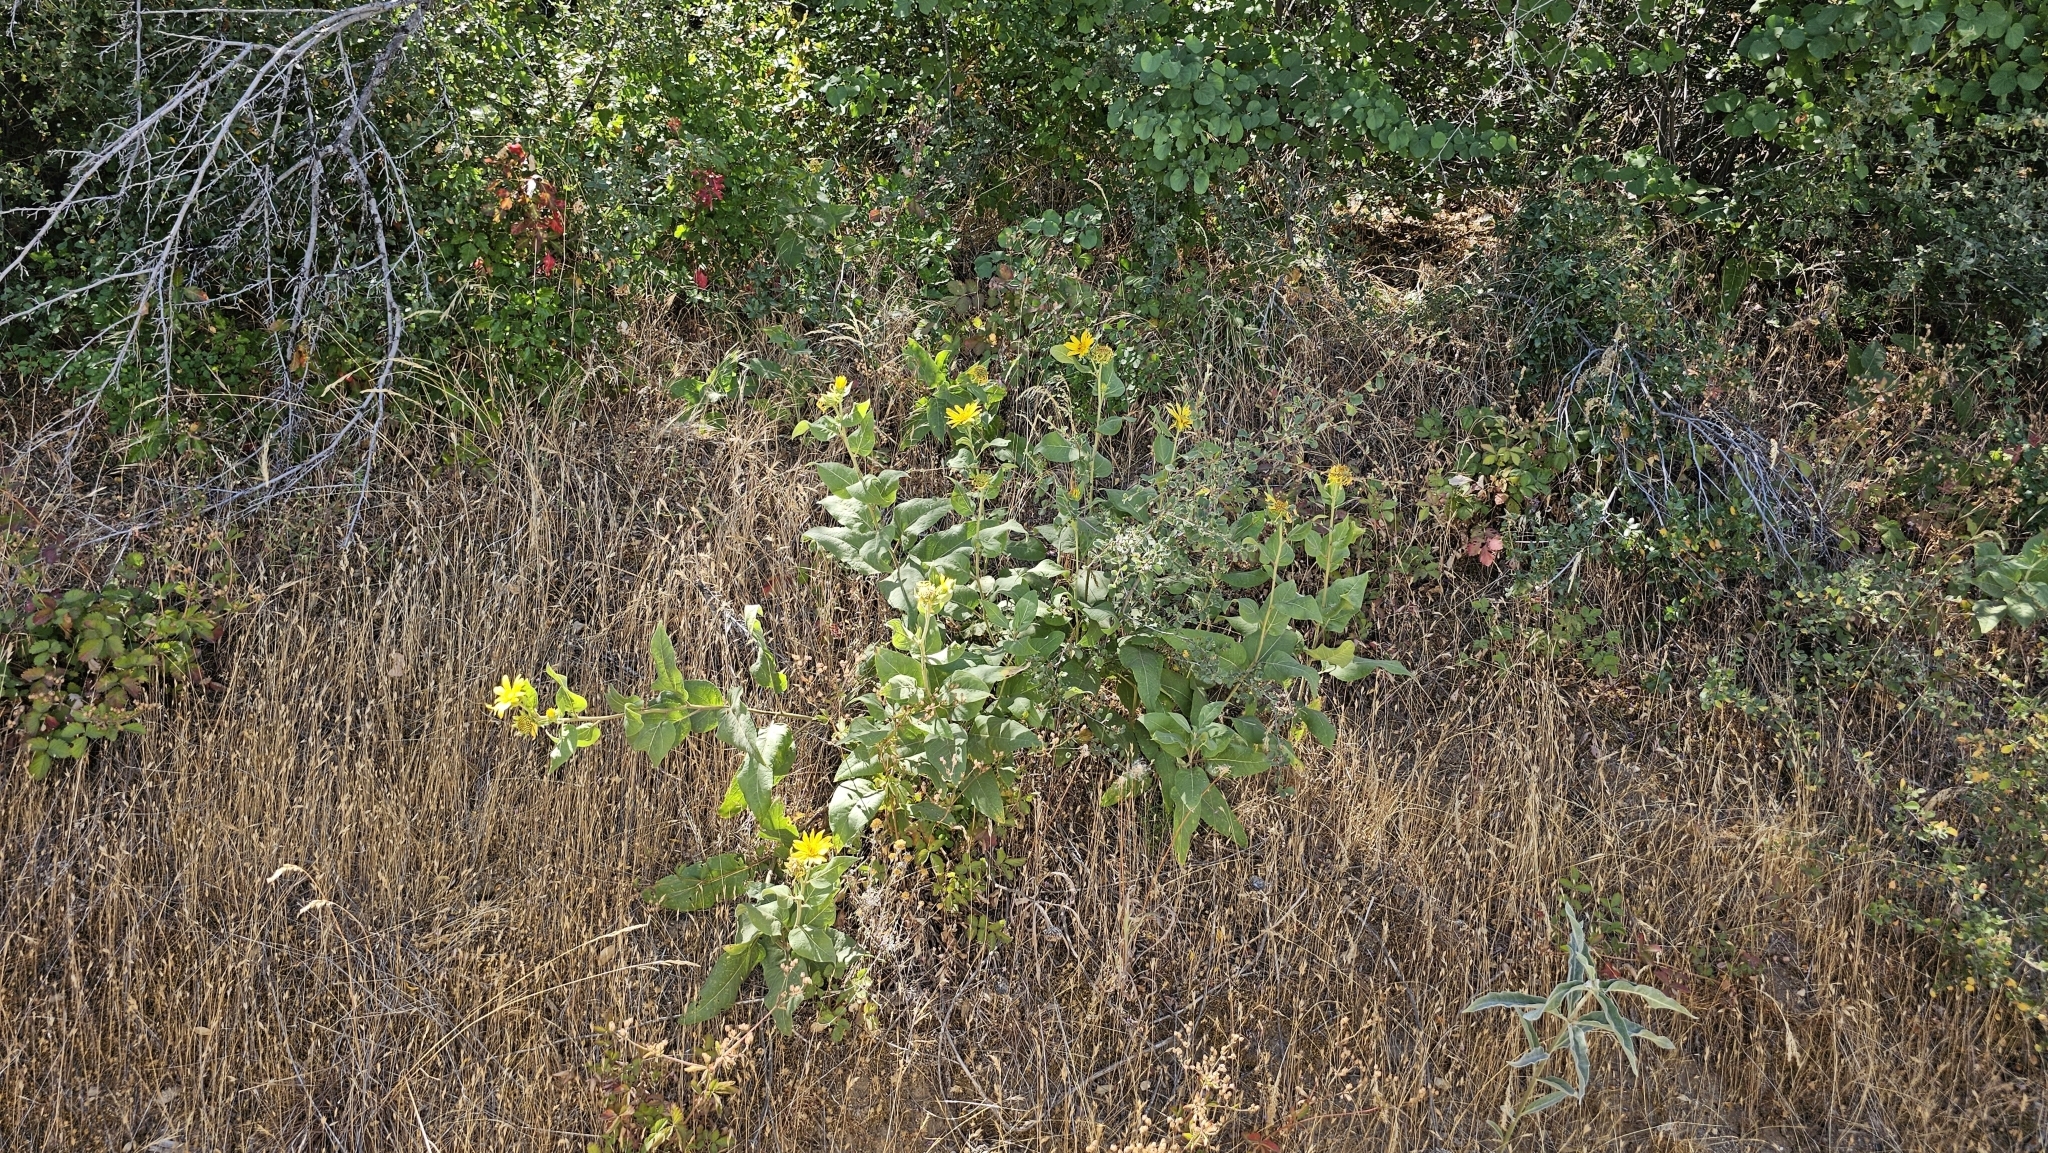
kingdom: Plantae
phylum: Tracheophyta
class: Magnoliopsida
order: Asterales
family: Asteraceae
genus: Agnorhiza
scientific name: Agnorhiza elata
